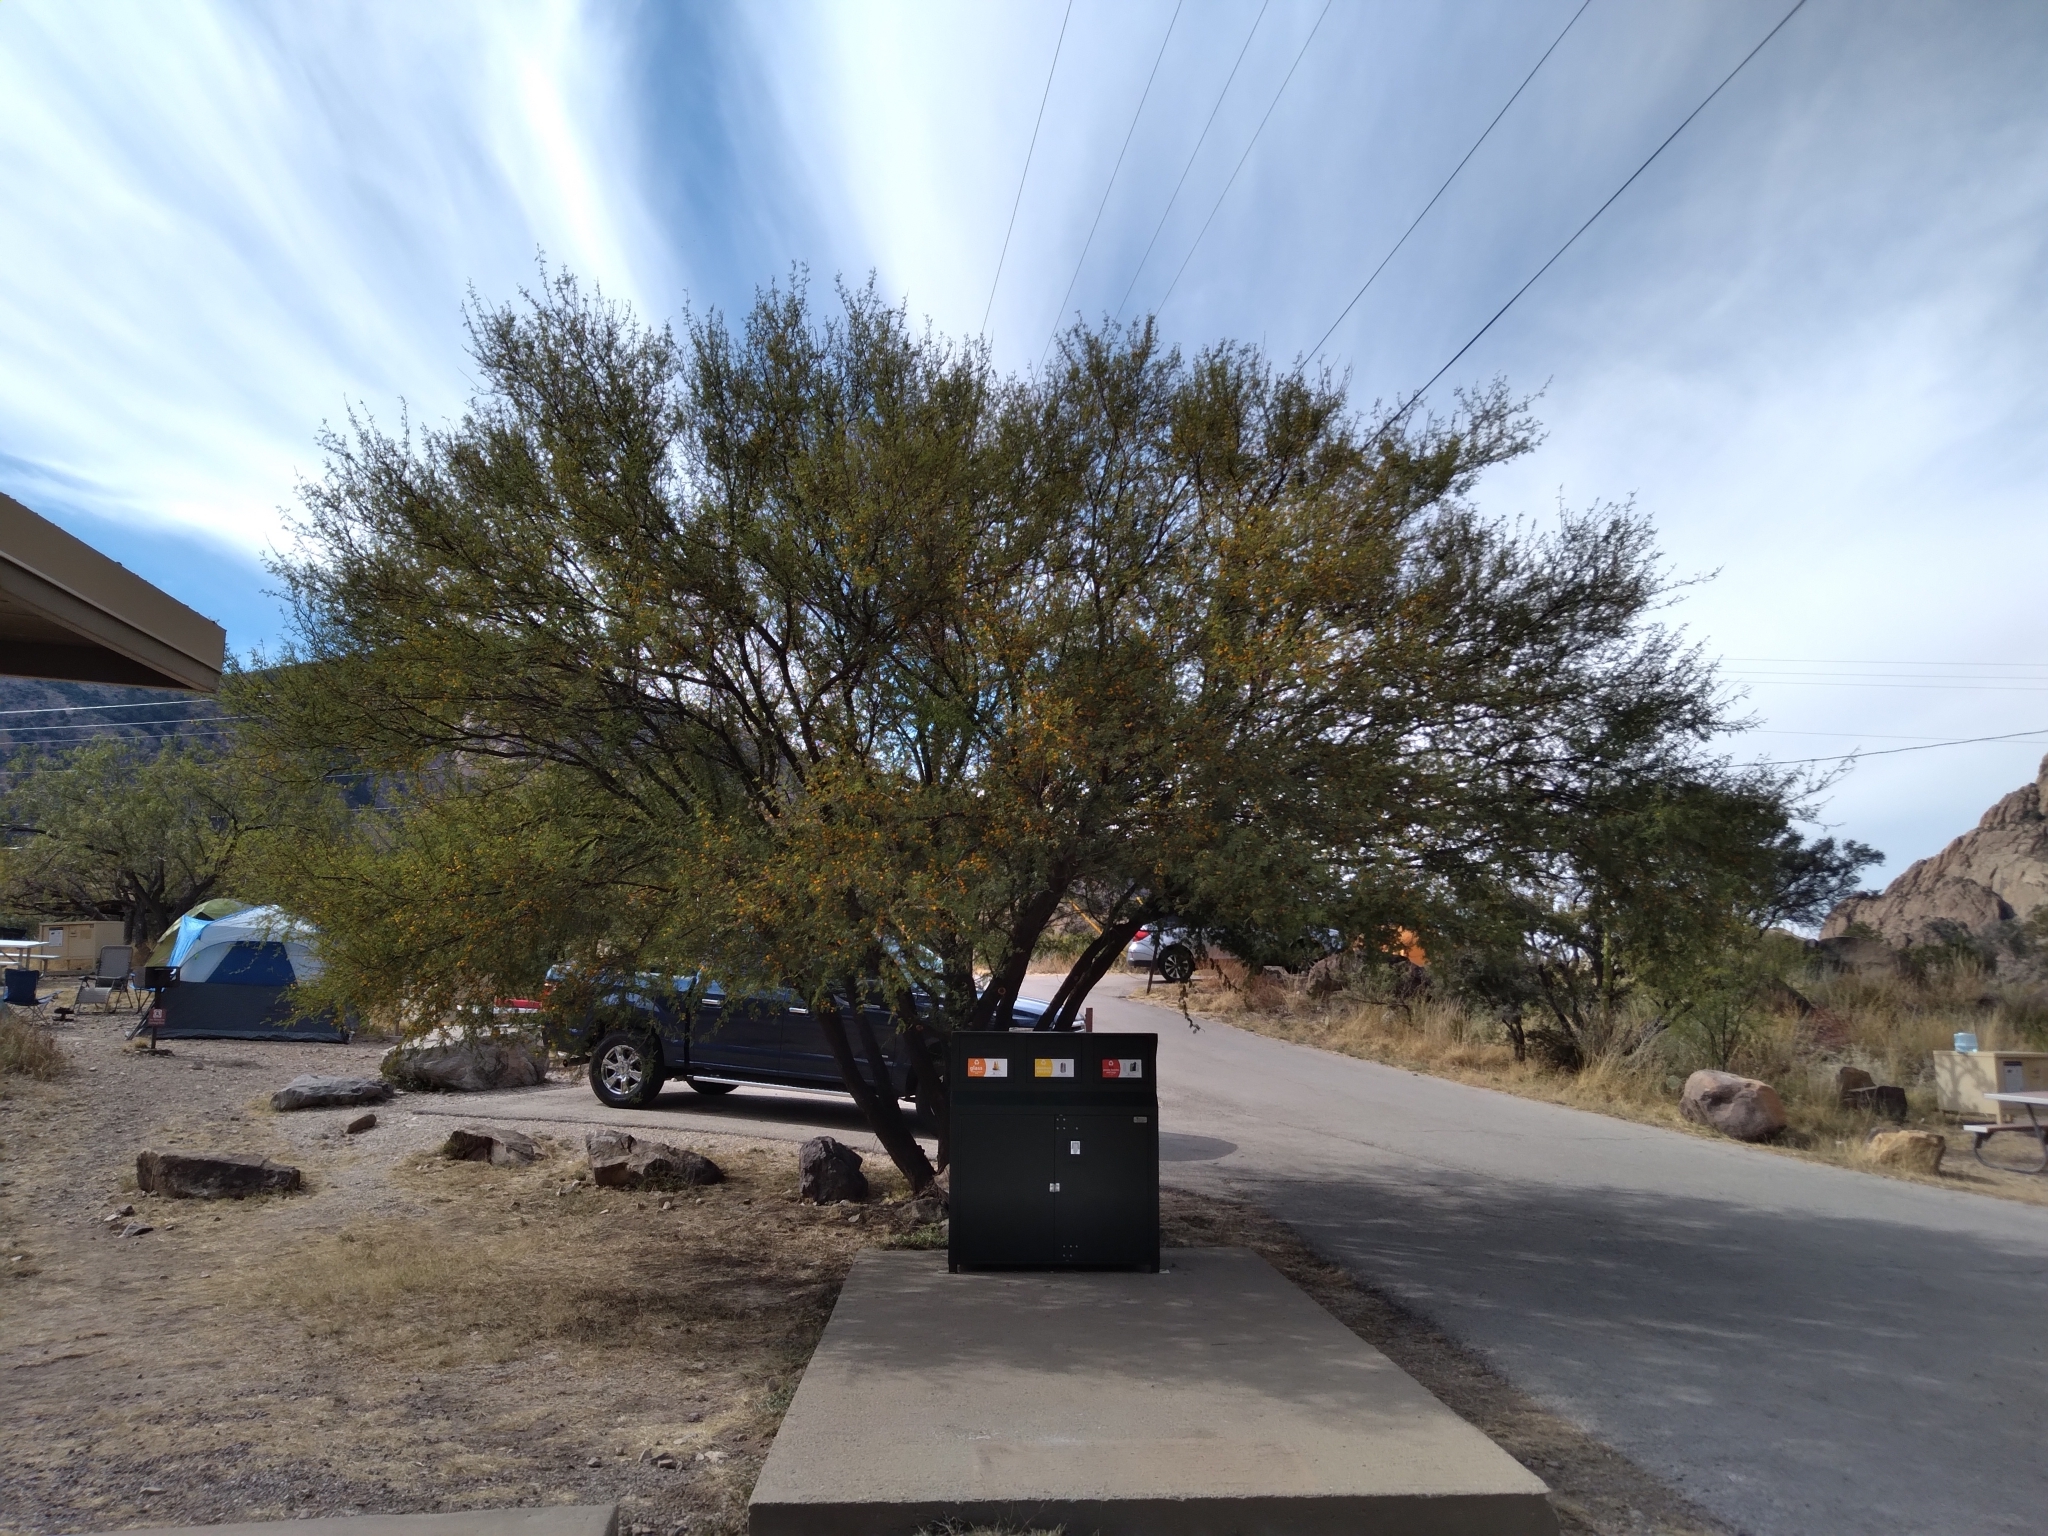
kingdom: Plantae
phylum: Tracheophyta
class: Magnoliopsida
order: Fabales
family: Fabaceae
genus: Vachellia
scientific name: Vachellia farnesiana
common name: Sweet acacia
